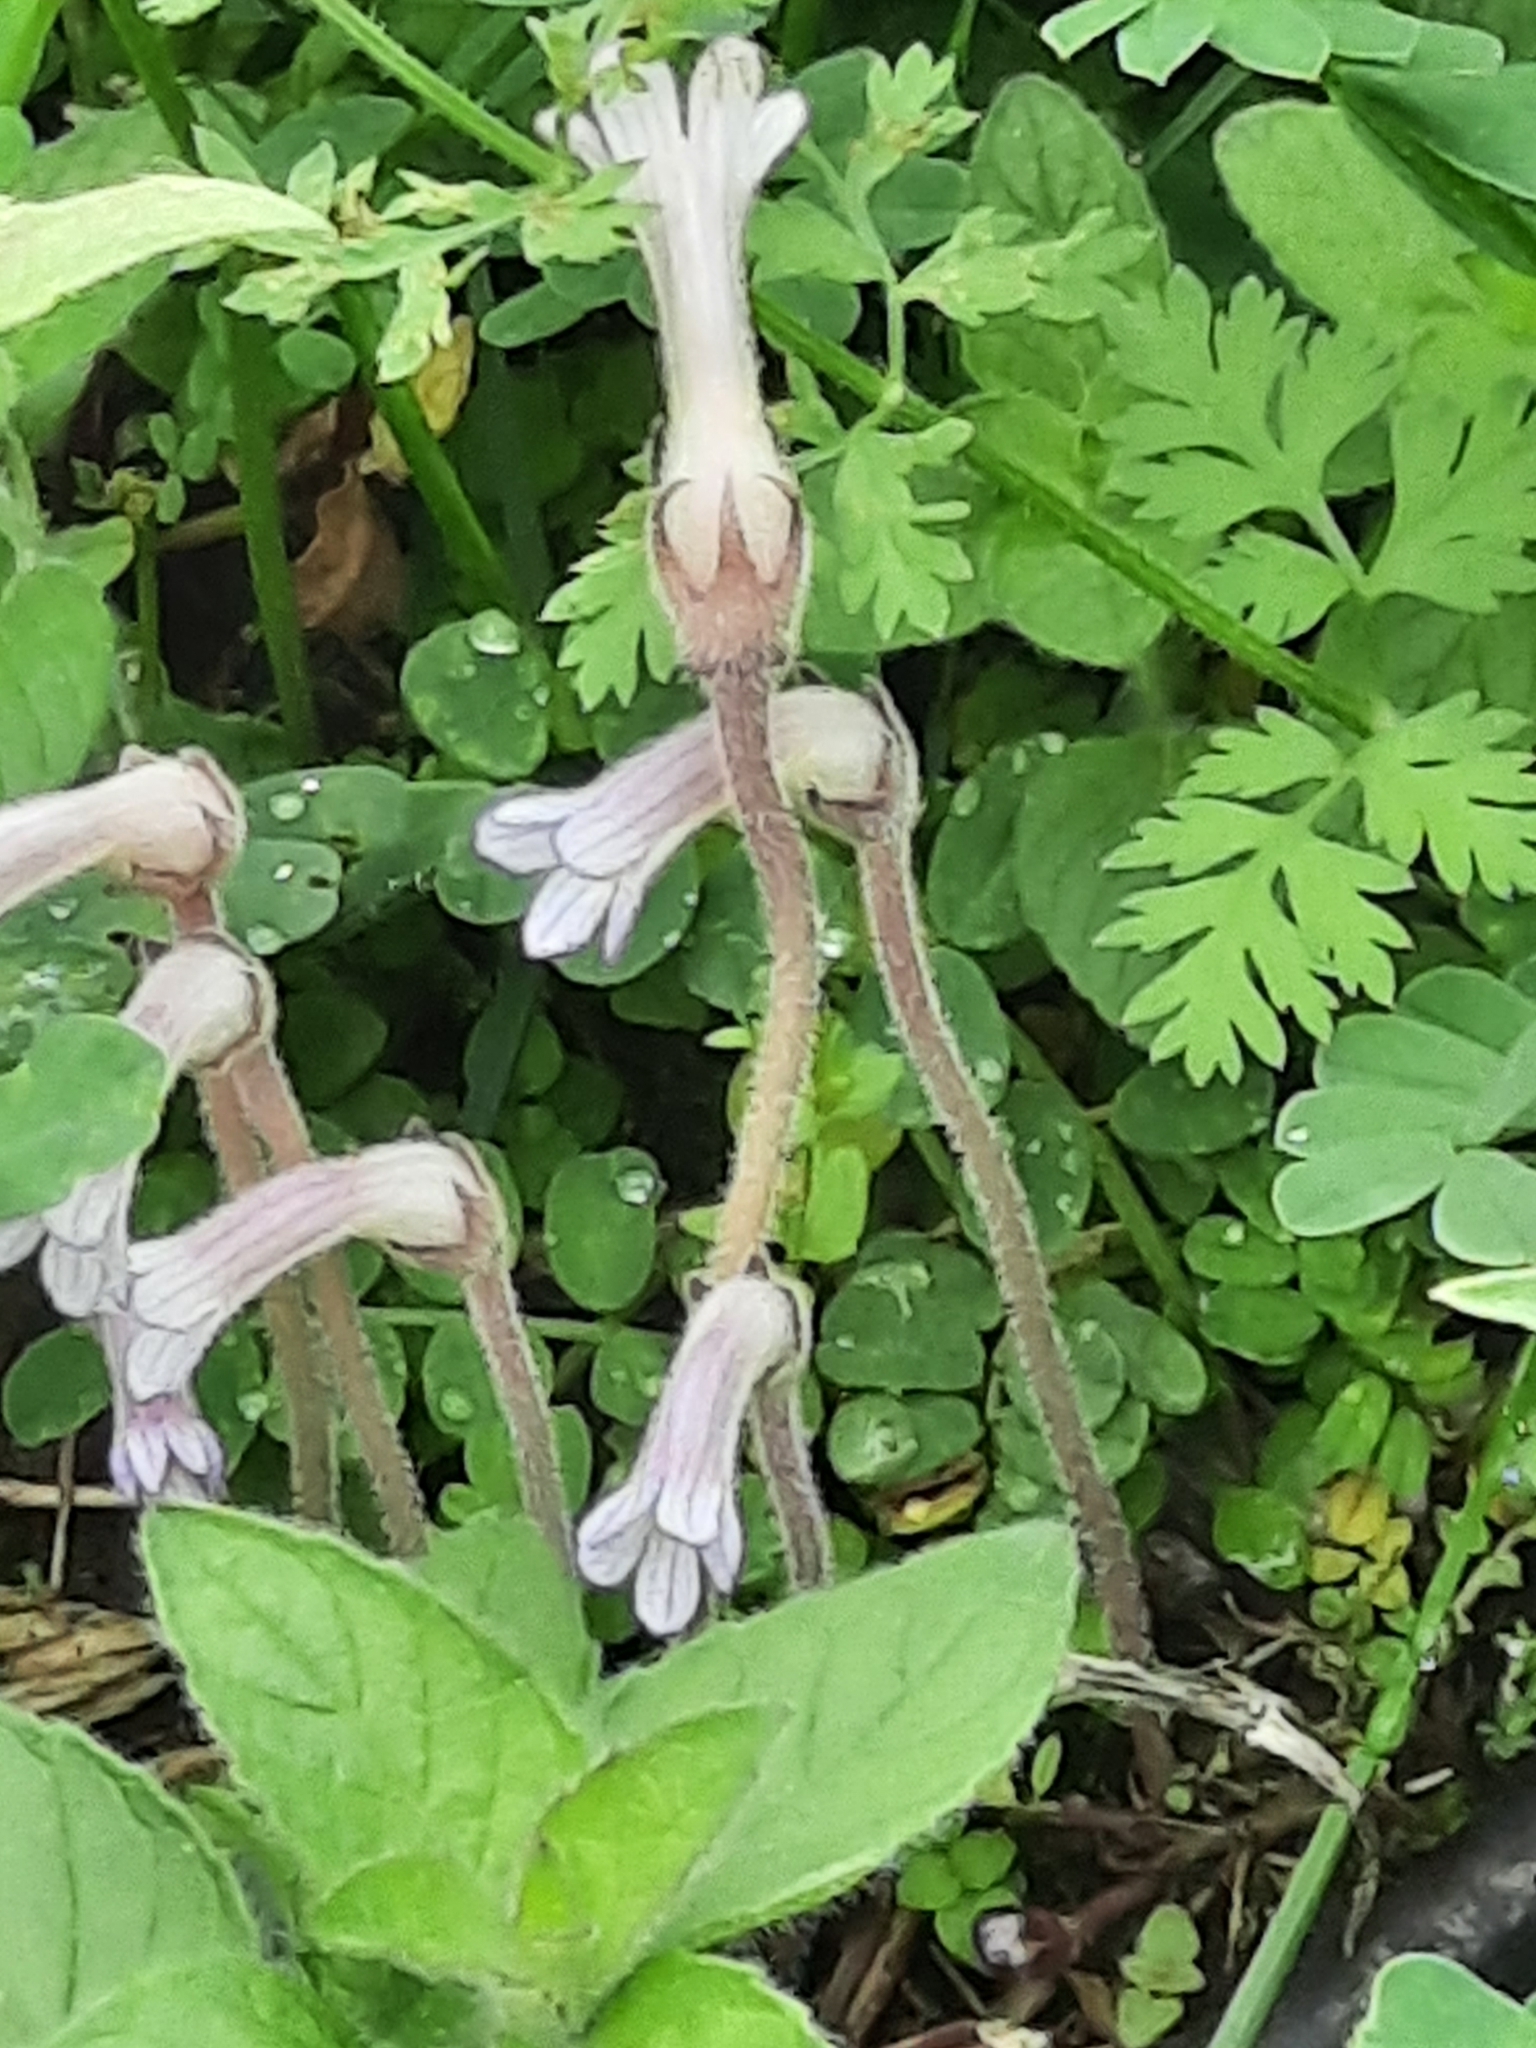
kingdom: Plantae
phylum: Tracheophyta
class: Magnoliopsida
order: Lamiales
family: Orobanchaceae
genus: Aphyllon
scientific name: Aphyllon uniflorum
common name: One-flowered broomrape
